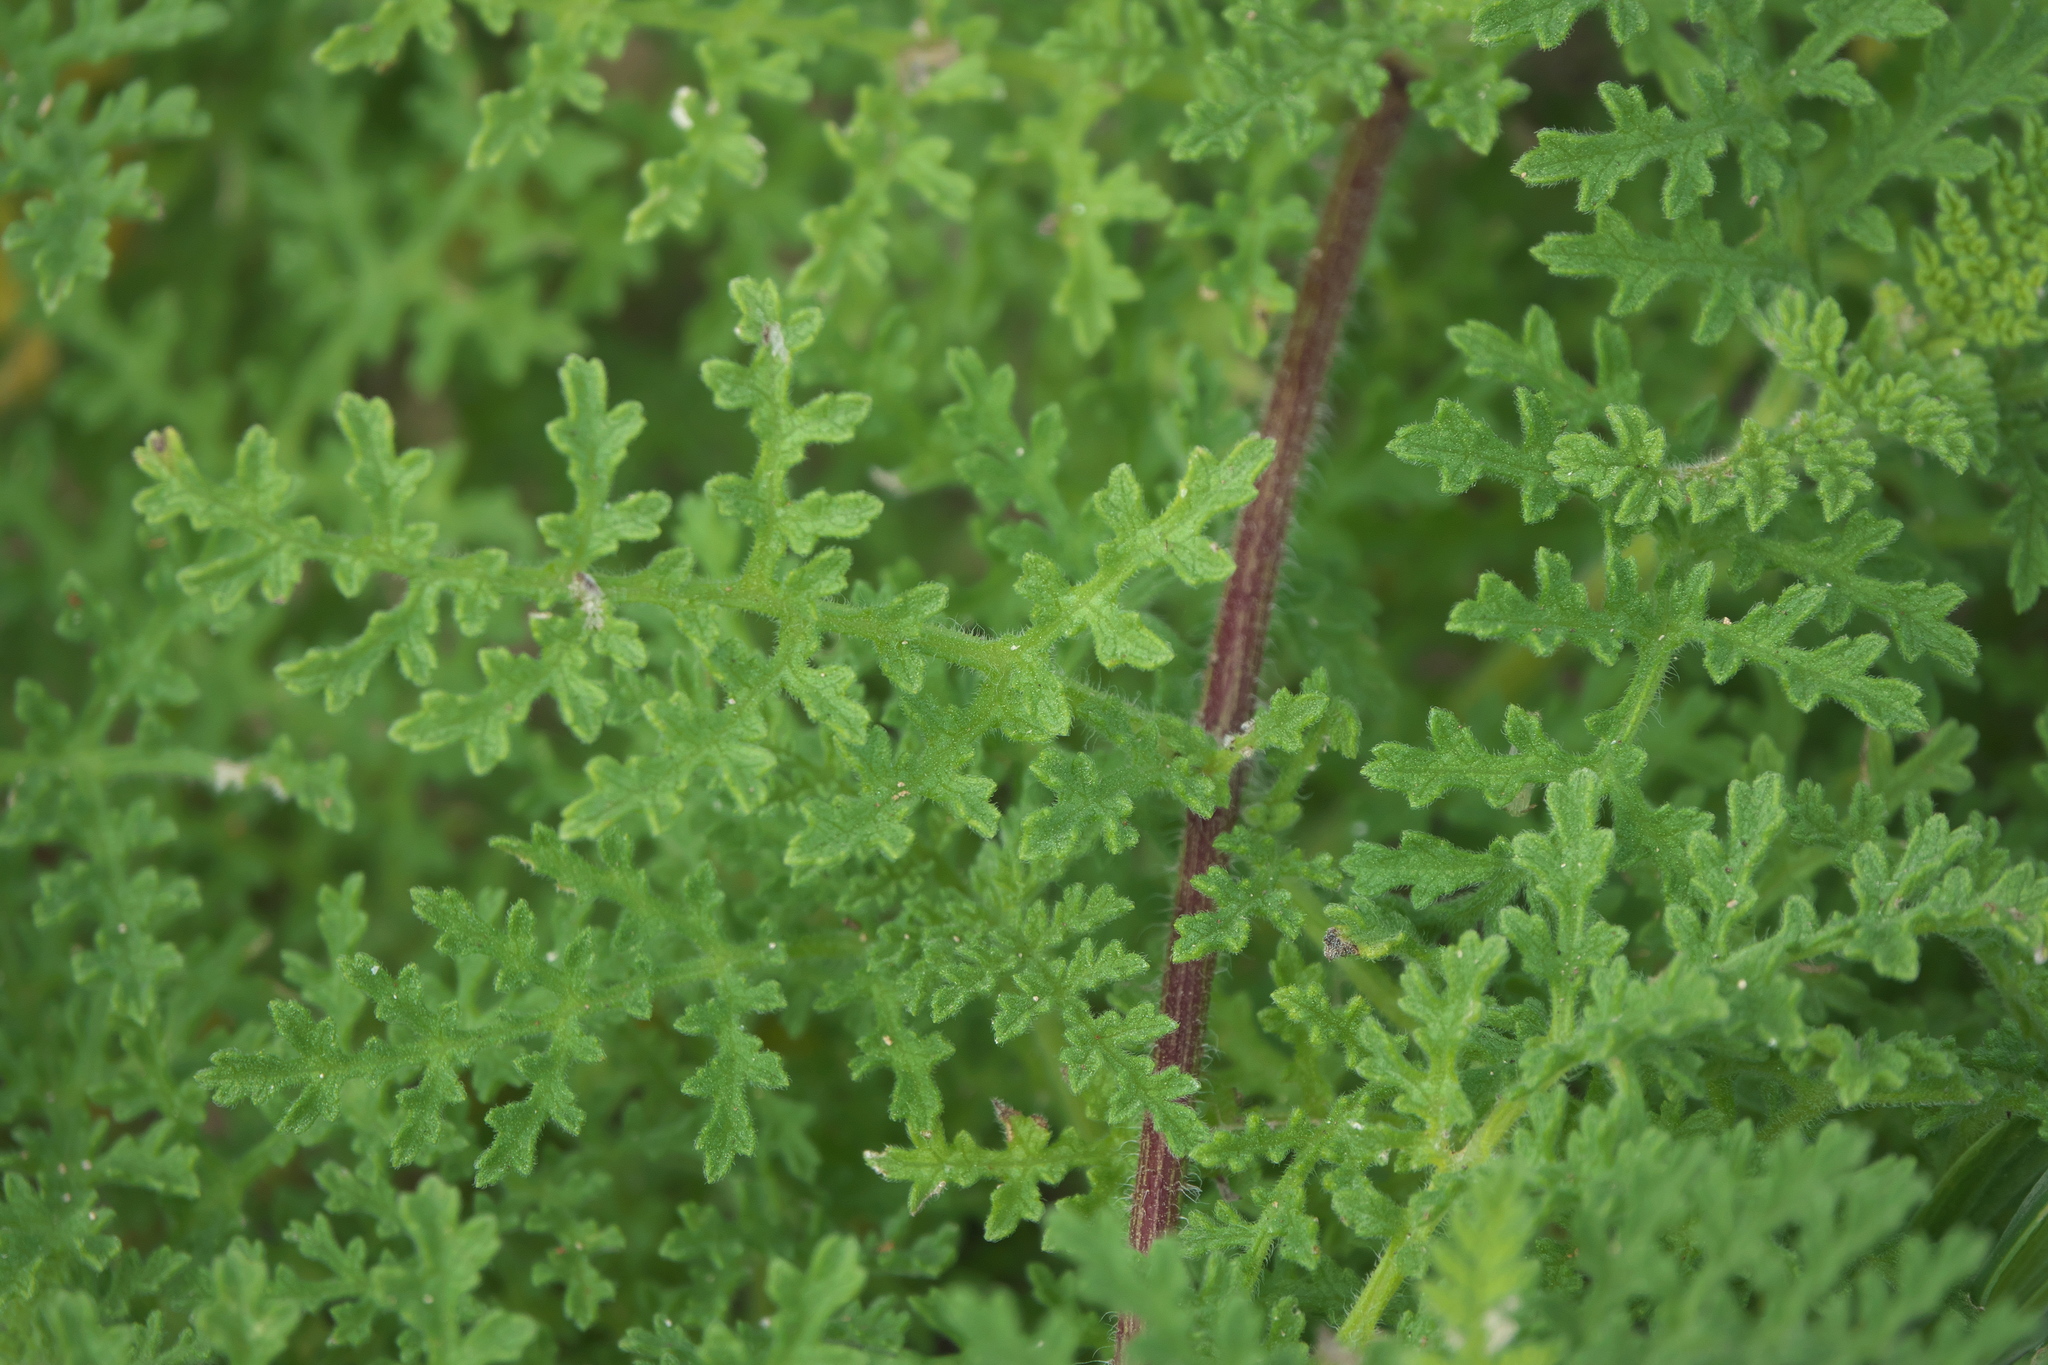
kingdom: Plantae
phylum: Tracheophyta
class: Magnoliopsida
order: Asterales
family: Asteraceae
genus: Ambrosia
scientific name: Ambrosia hispida
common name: Coastal ragweed
